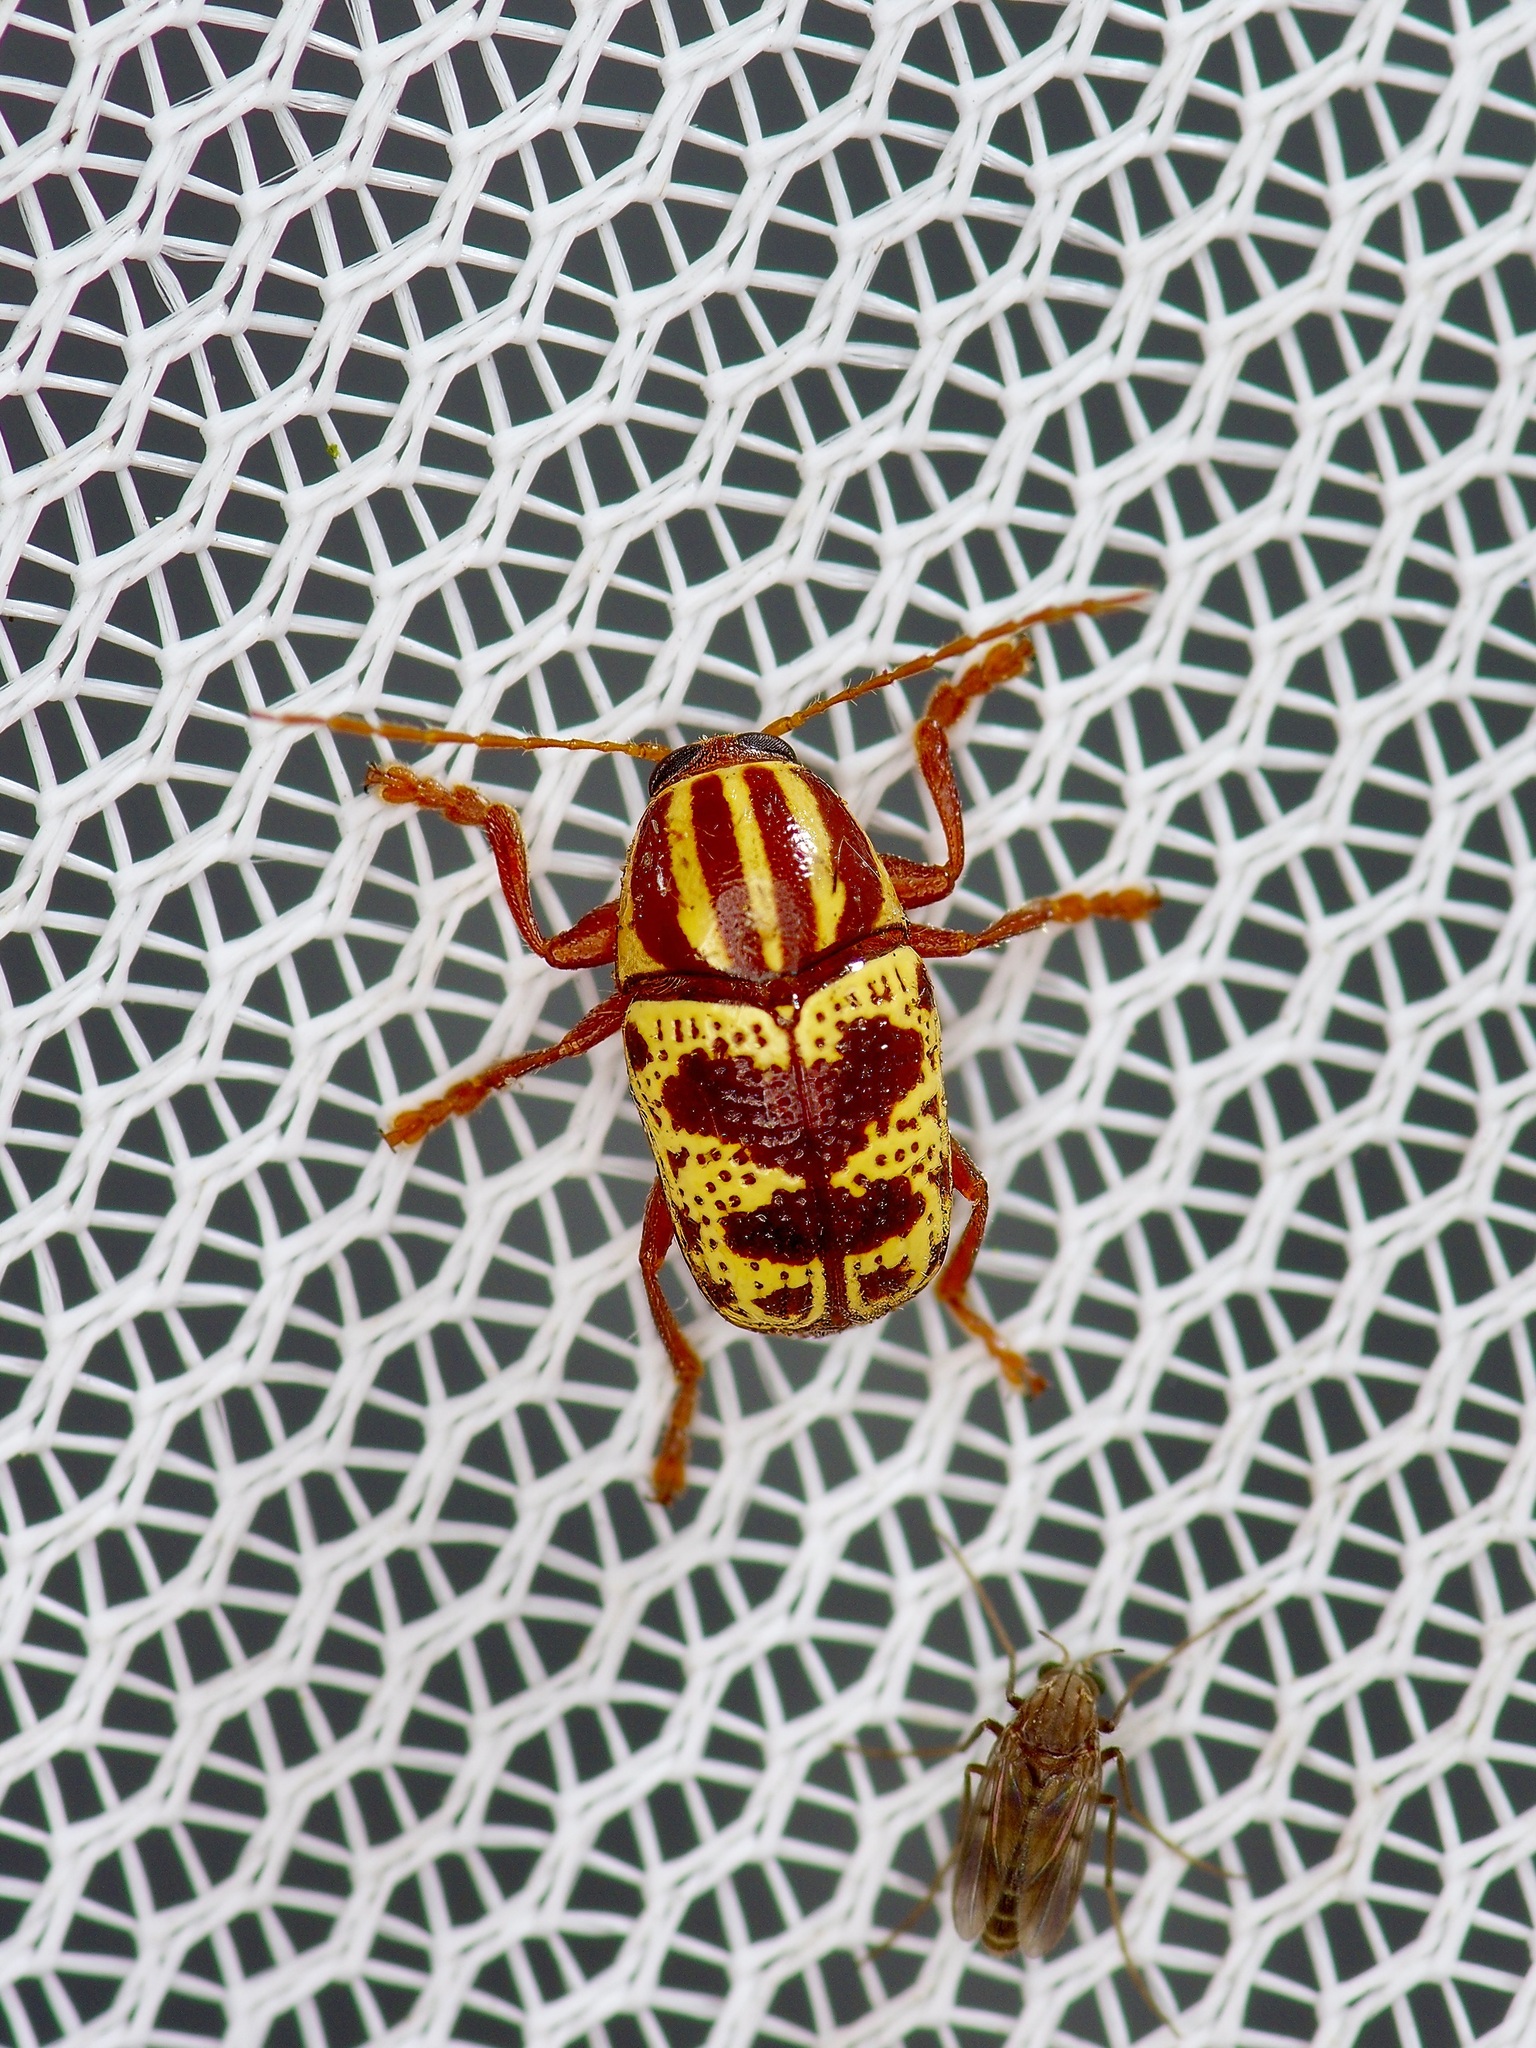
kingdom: Animalia
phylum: Arthropoda
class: Insecta
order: Coleoptera
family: Chrysomelidae
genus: Cryptocephalus
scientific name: Cryptocephalus leucomelas
